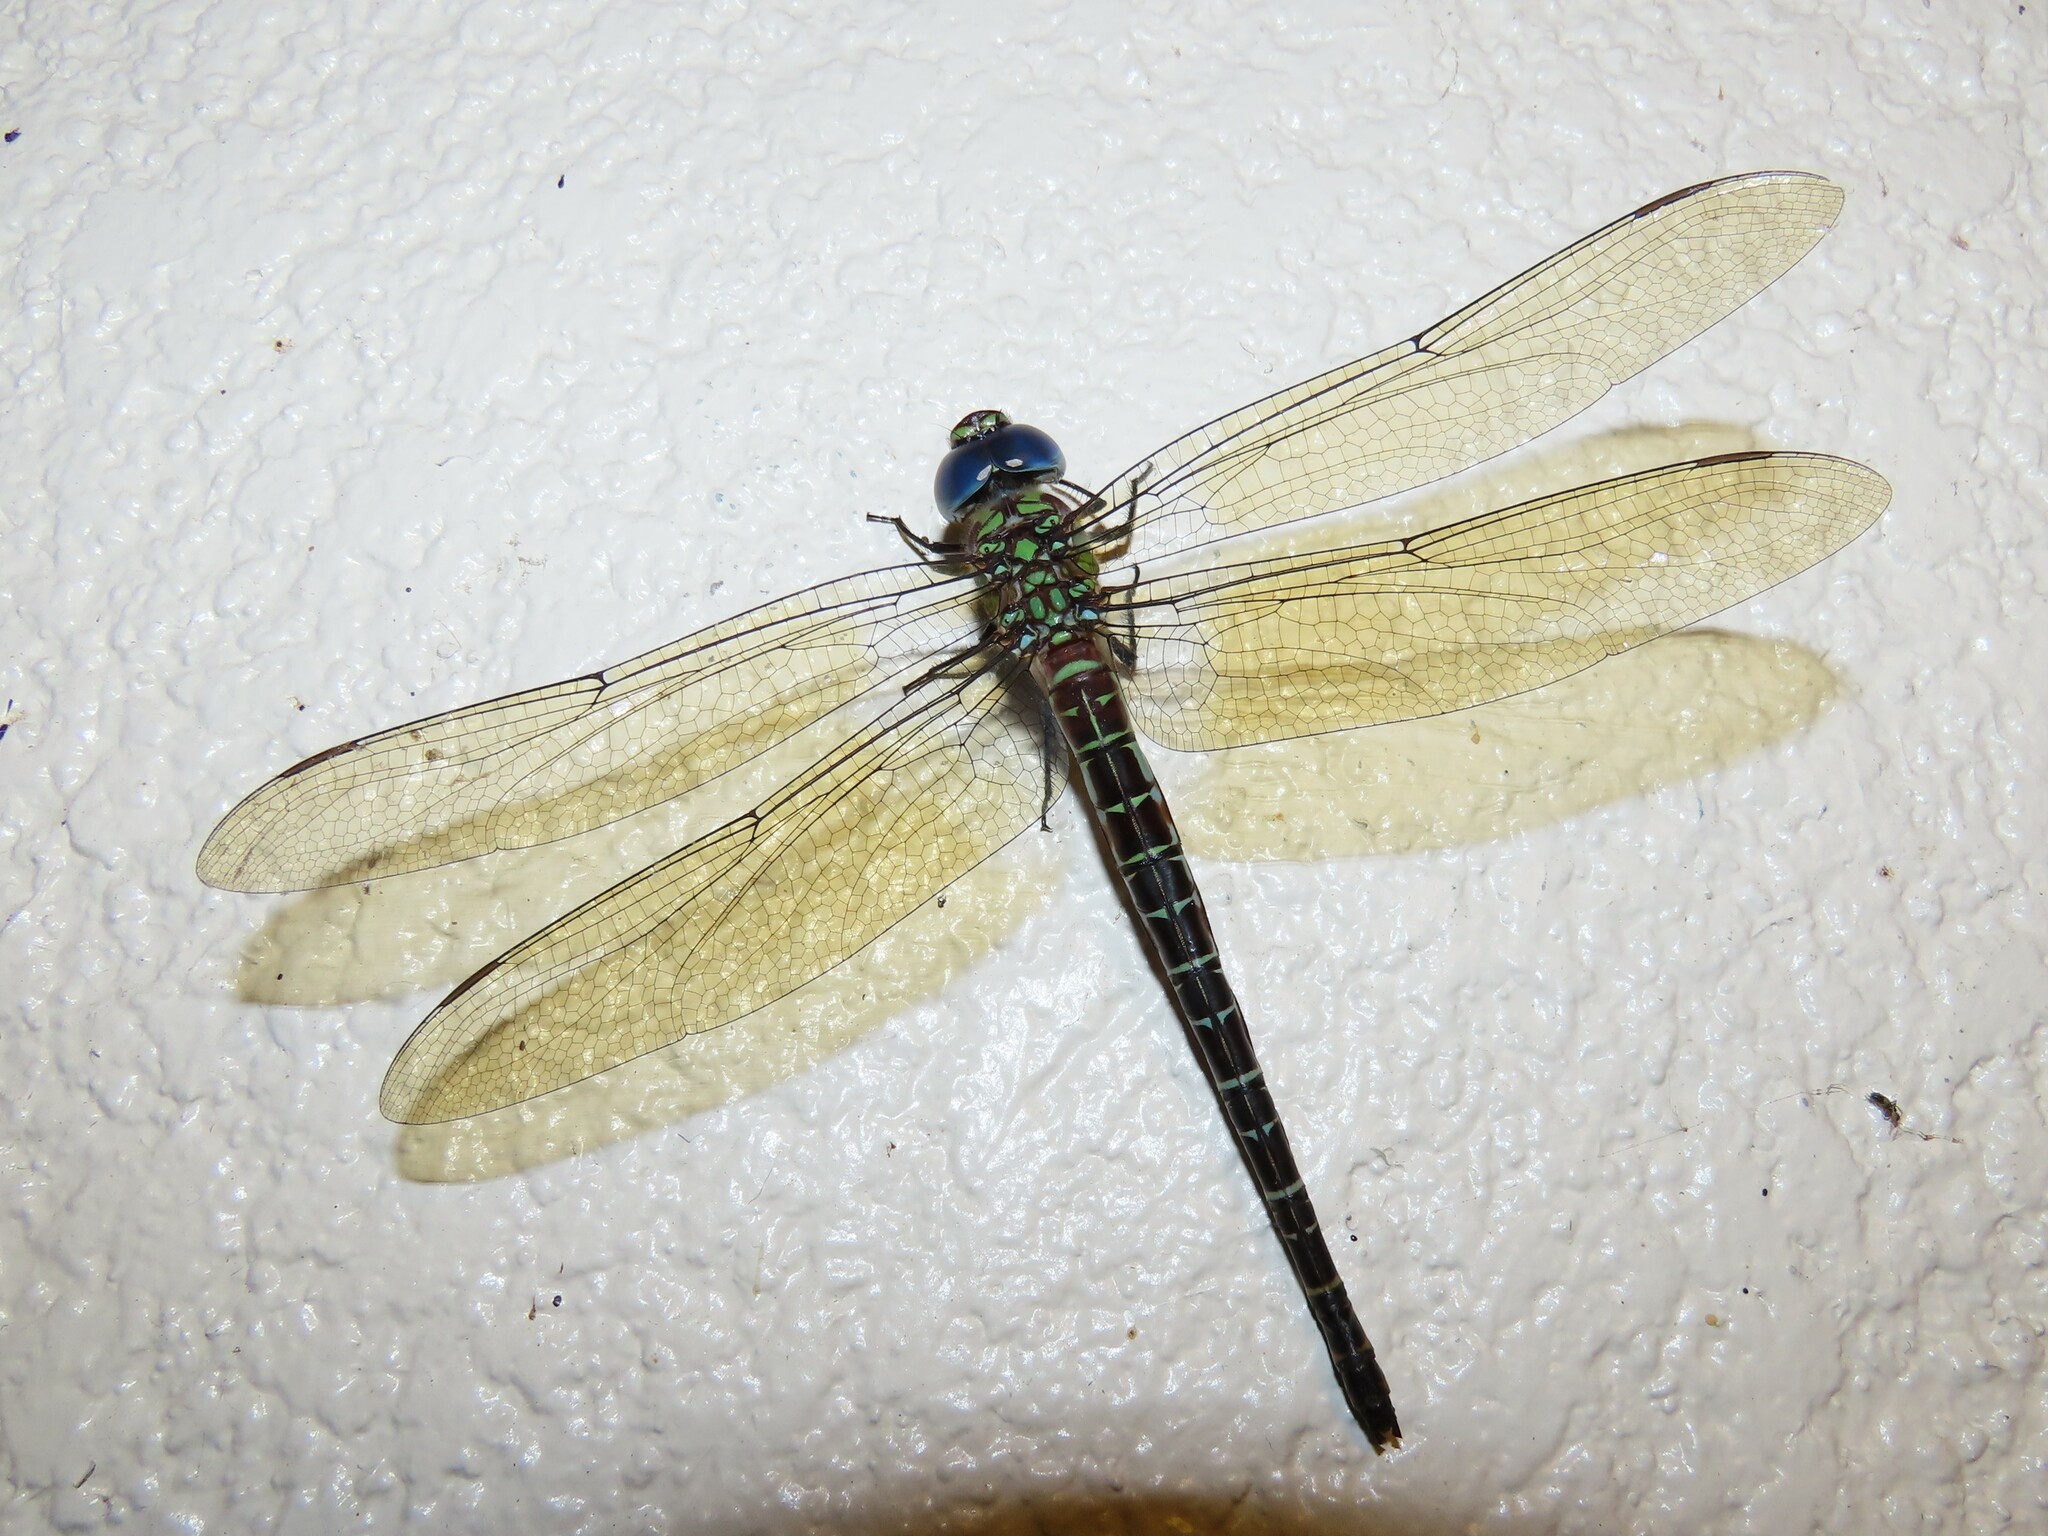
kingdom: Animalia
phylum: Arthropoda
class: Insecta
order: Odonata
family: Aeshnidae
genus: Coryphaeschna
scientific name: Coryphaeschna ingens
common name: Regal darner
